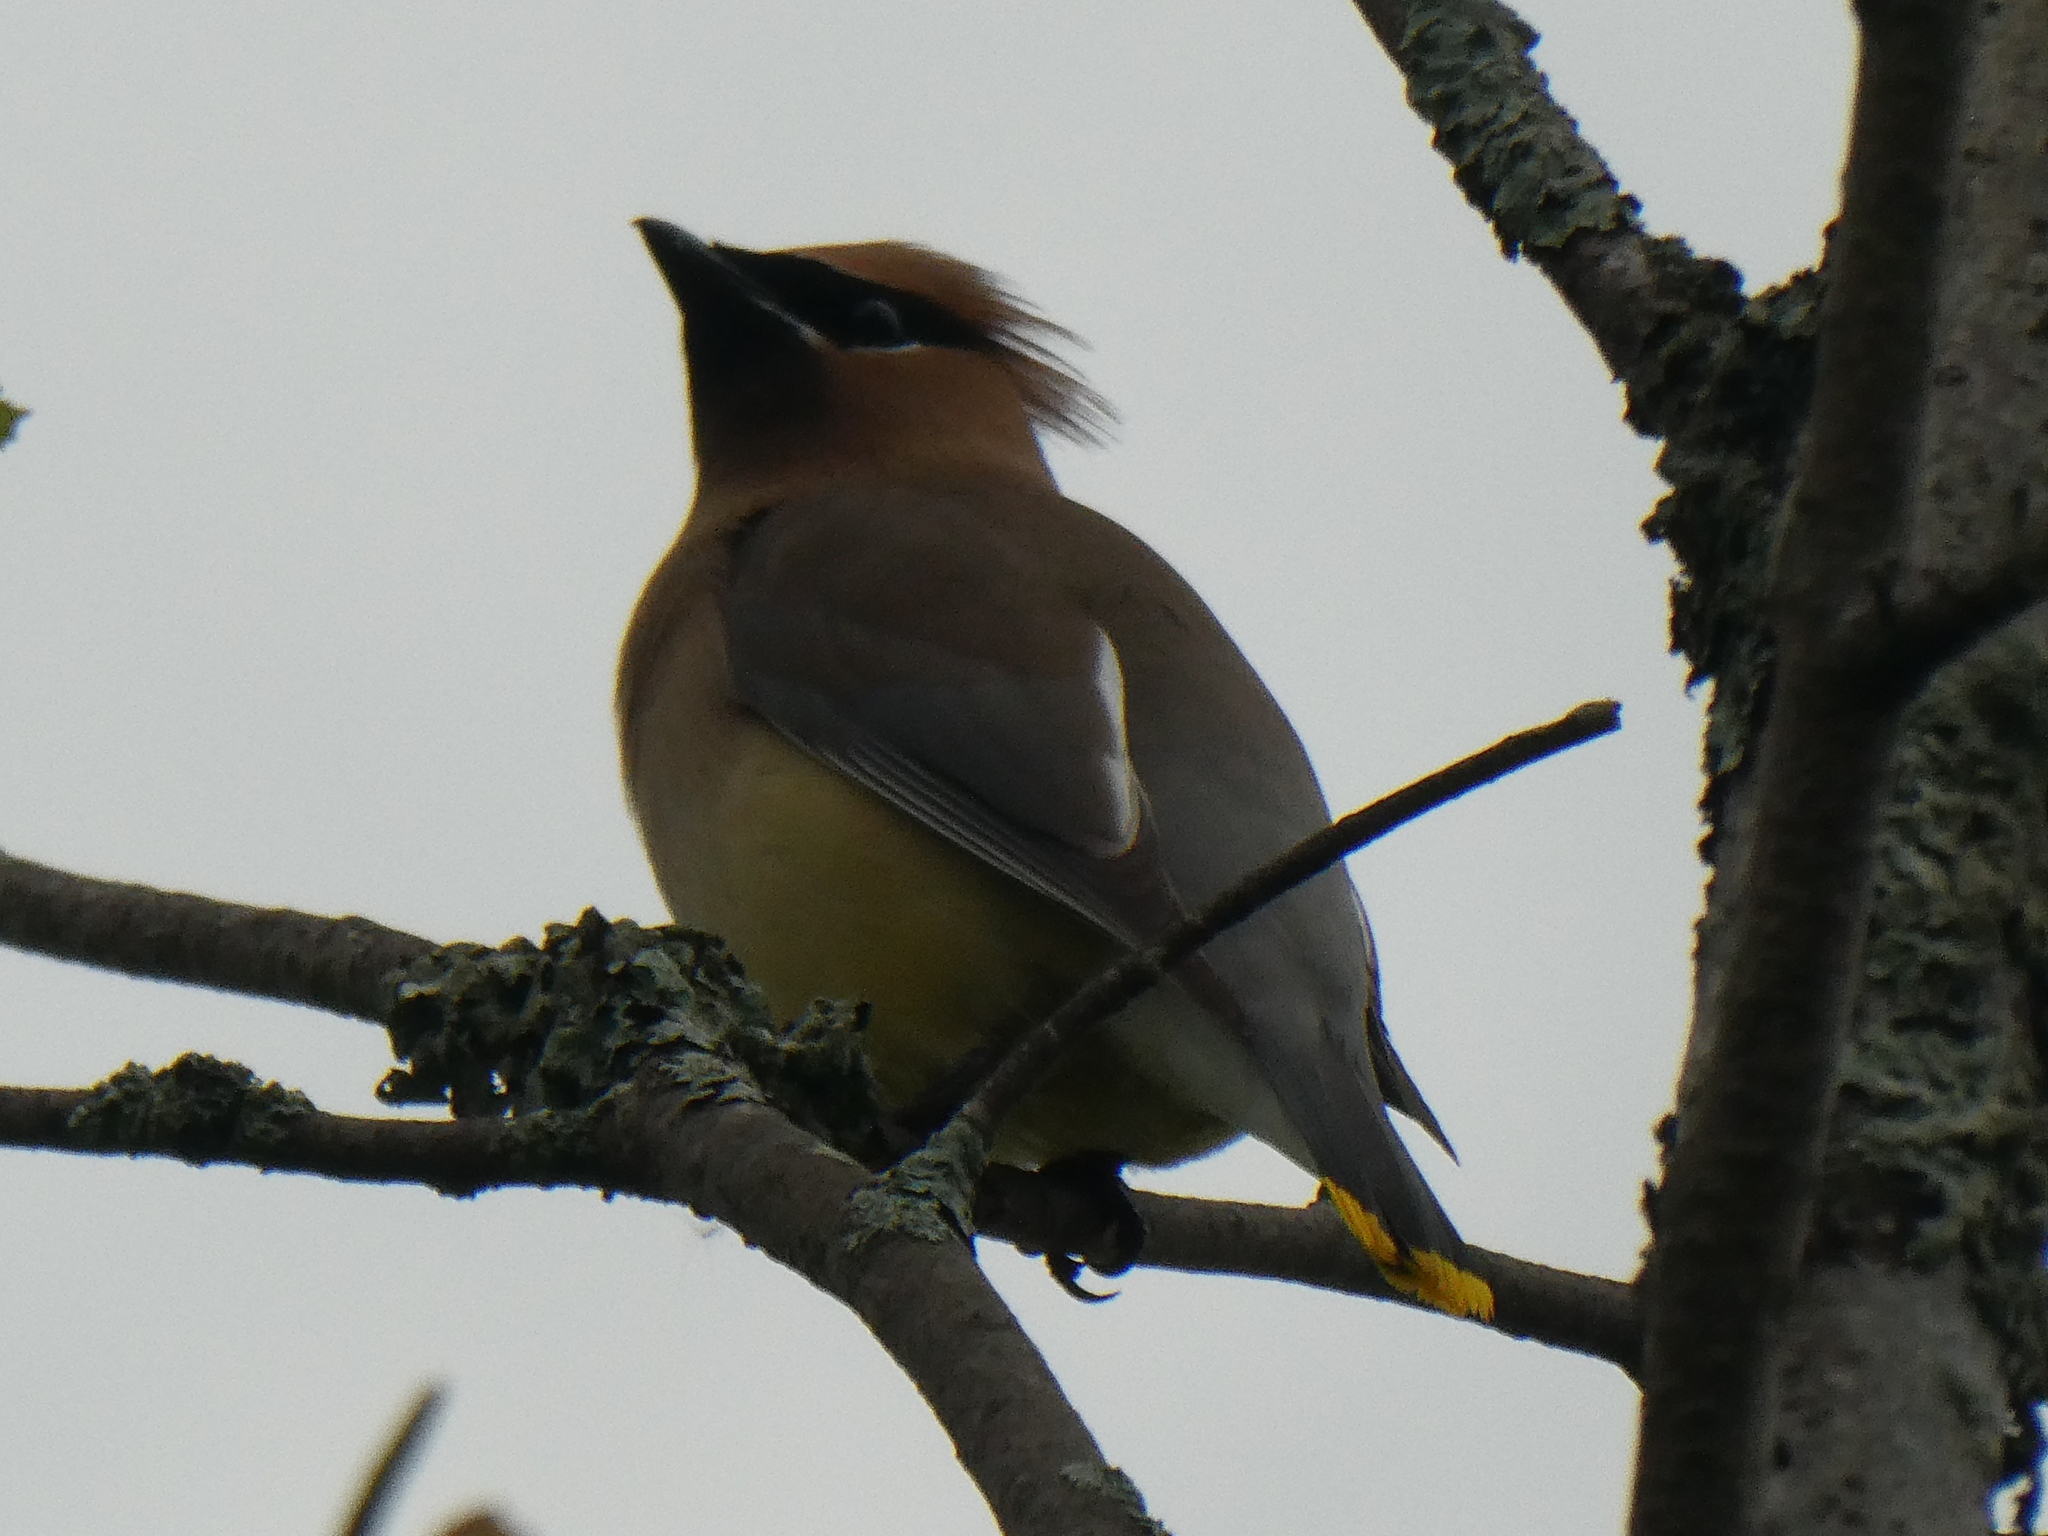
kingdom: Animalia
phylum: Chordata
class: Aves
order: Passeriformes
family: Bombycillidae
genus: Bombycilla
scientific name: Bombycilla cedrorum
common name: Cedar waxwing
